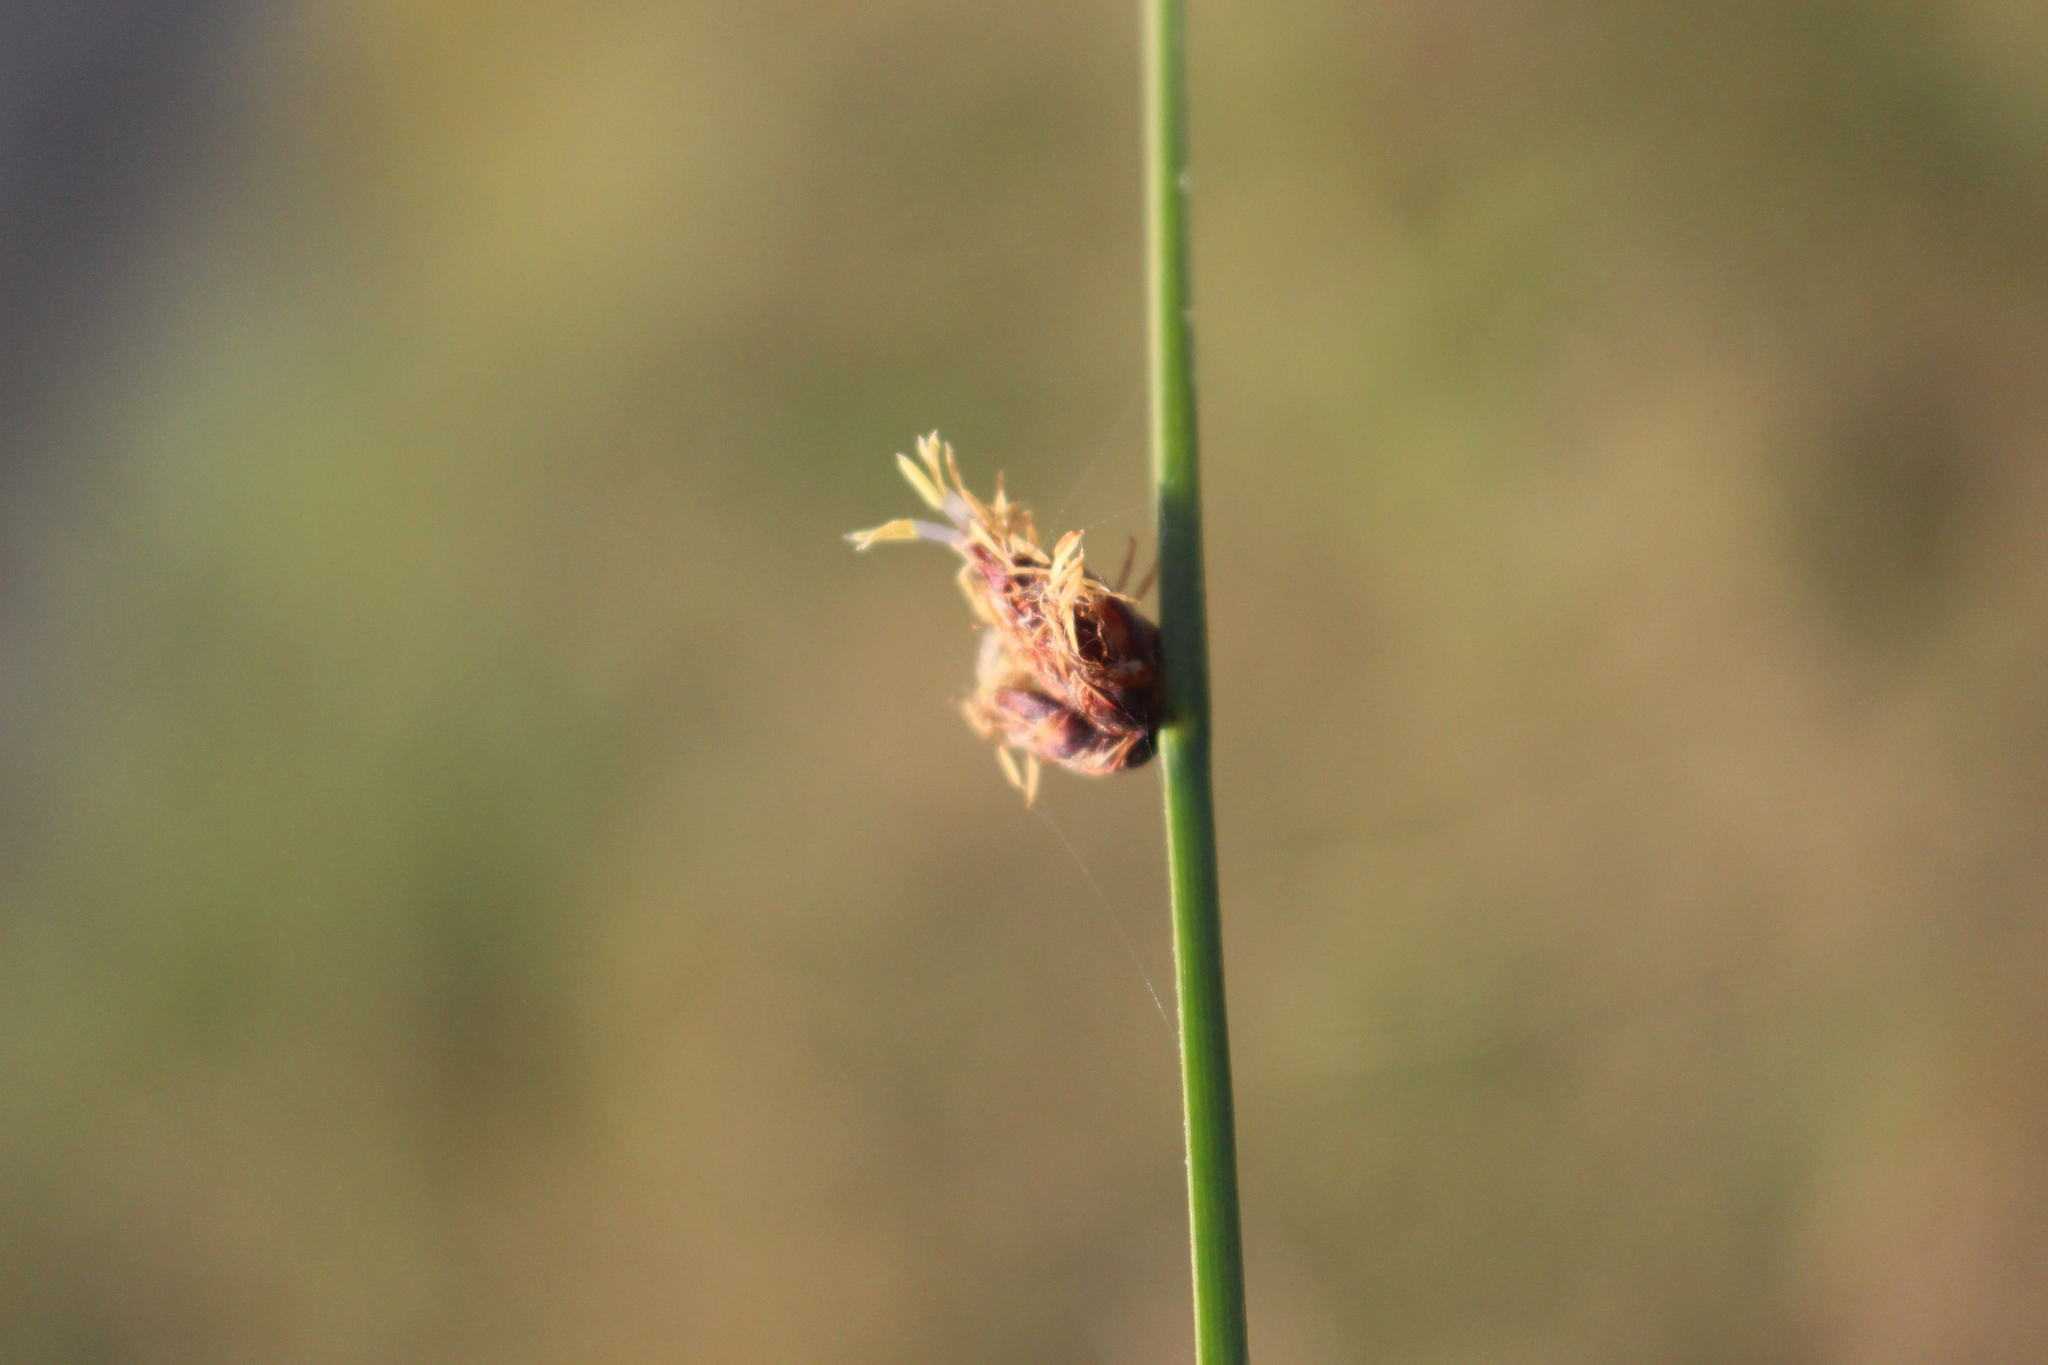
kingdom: Plantae
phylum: Tracheophyta
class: Liliopsida
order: Poales
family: Cyperaceae
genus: Schoenoplectus
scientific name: Schoenoplectus pungens
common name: Sharp club-rush
